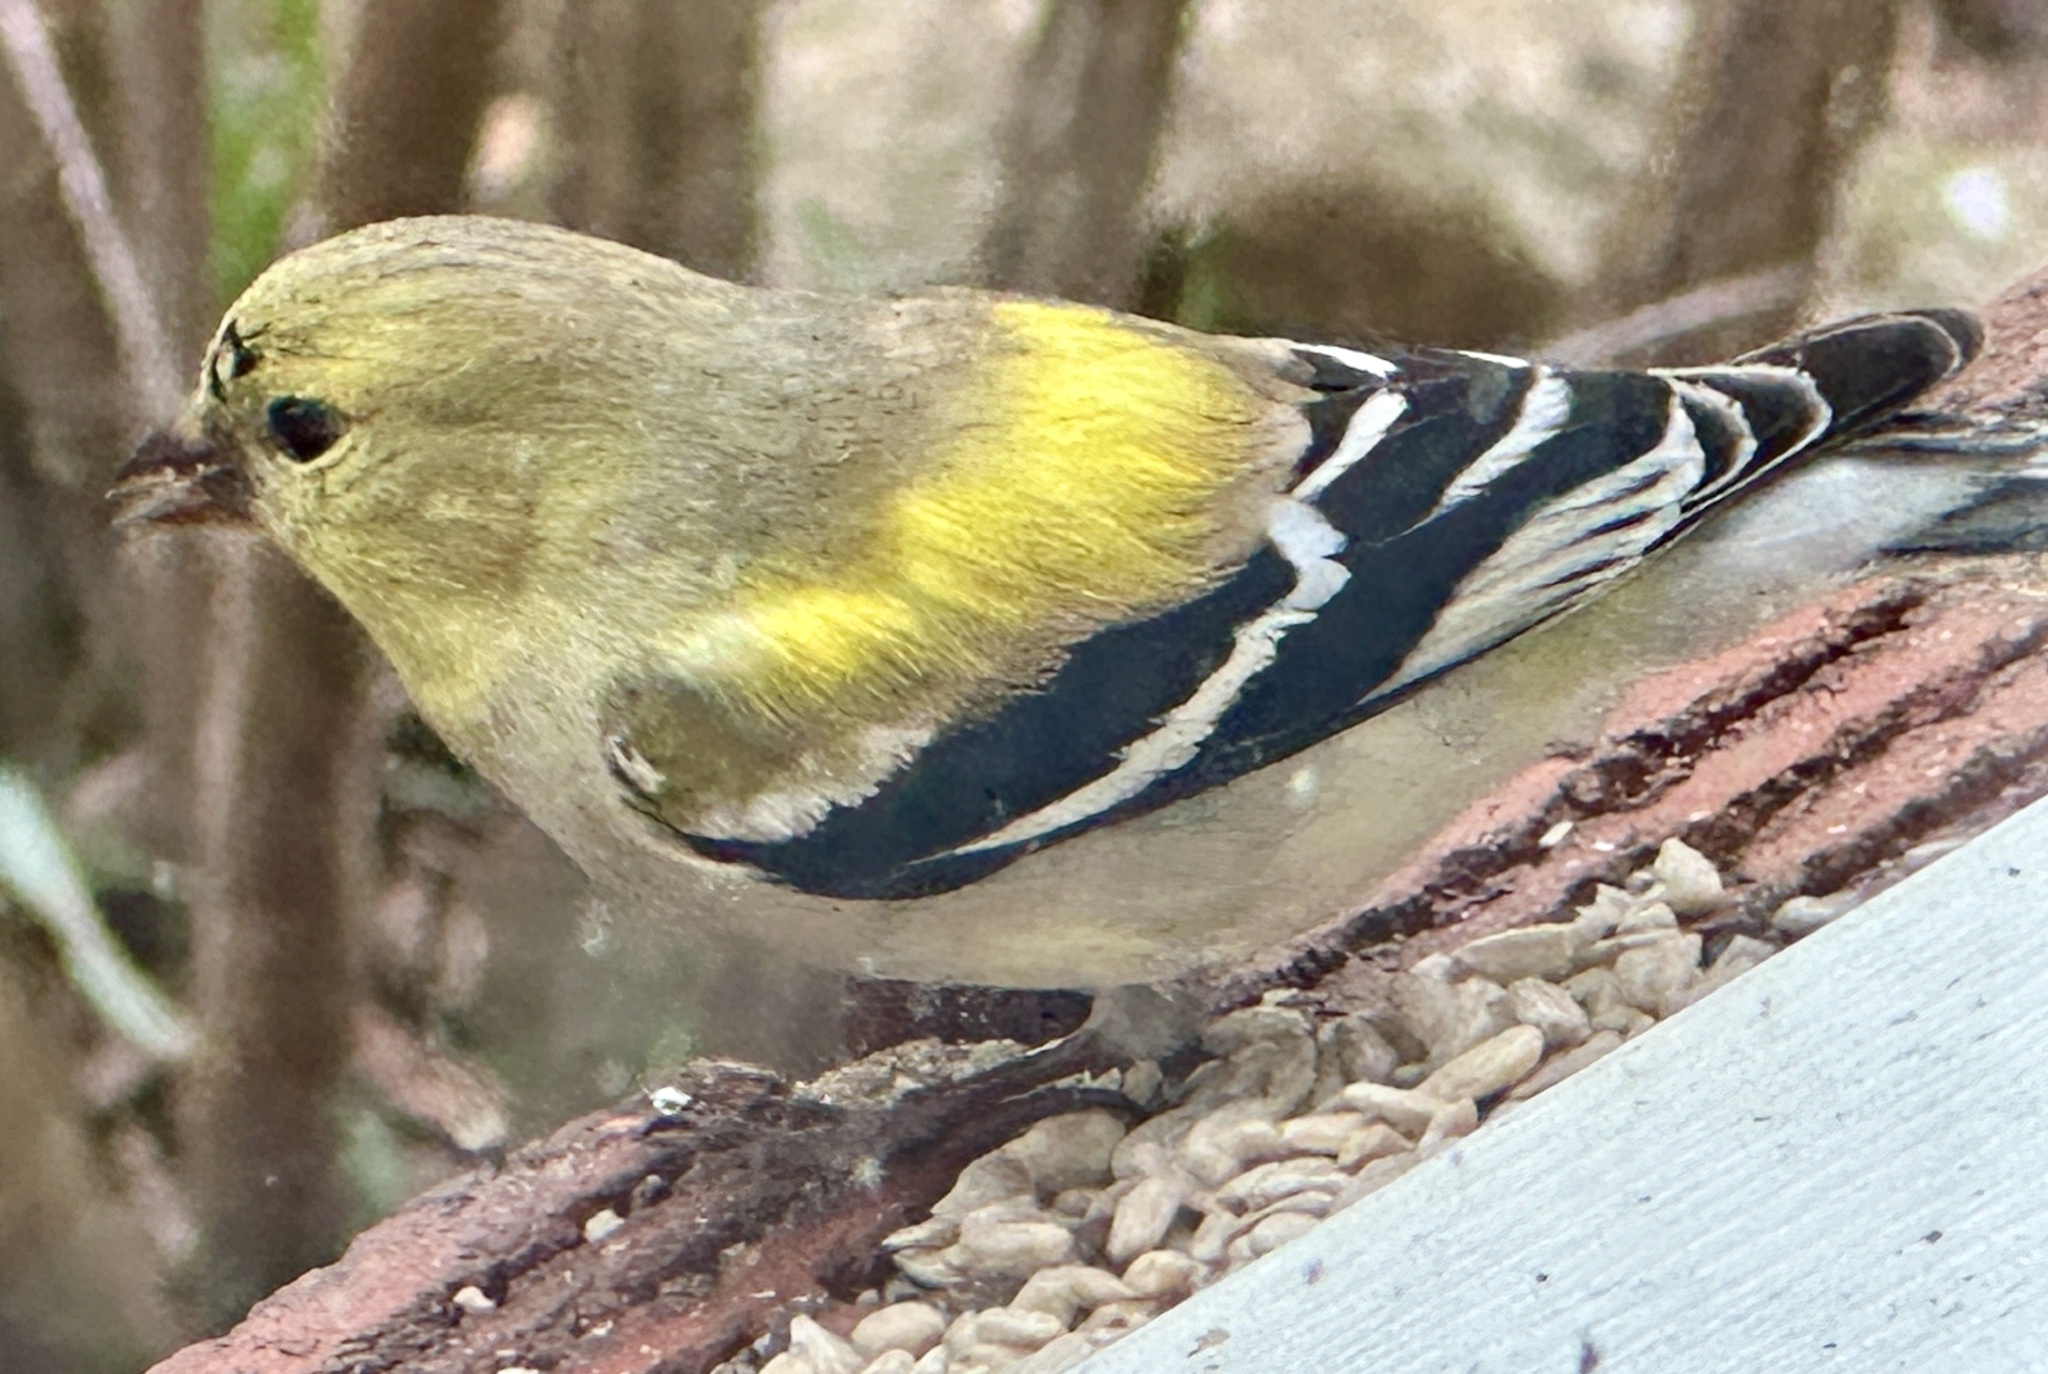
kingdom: Animalia
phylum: Chordata
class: Aves
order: Passeriformes
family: Fringillidae
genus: Spinus
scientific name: Spinus tristis
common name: American goldfinch
